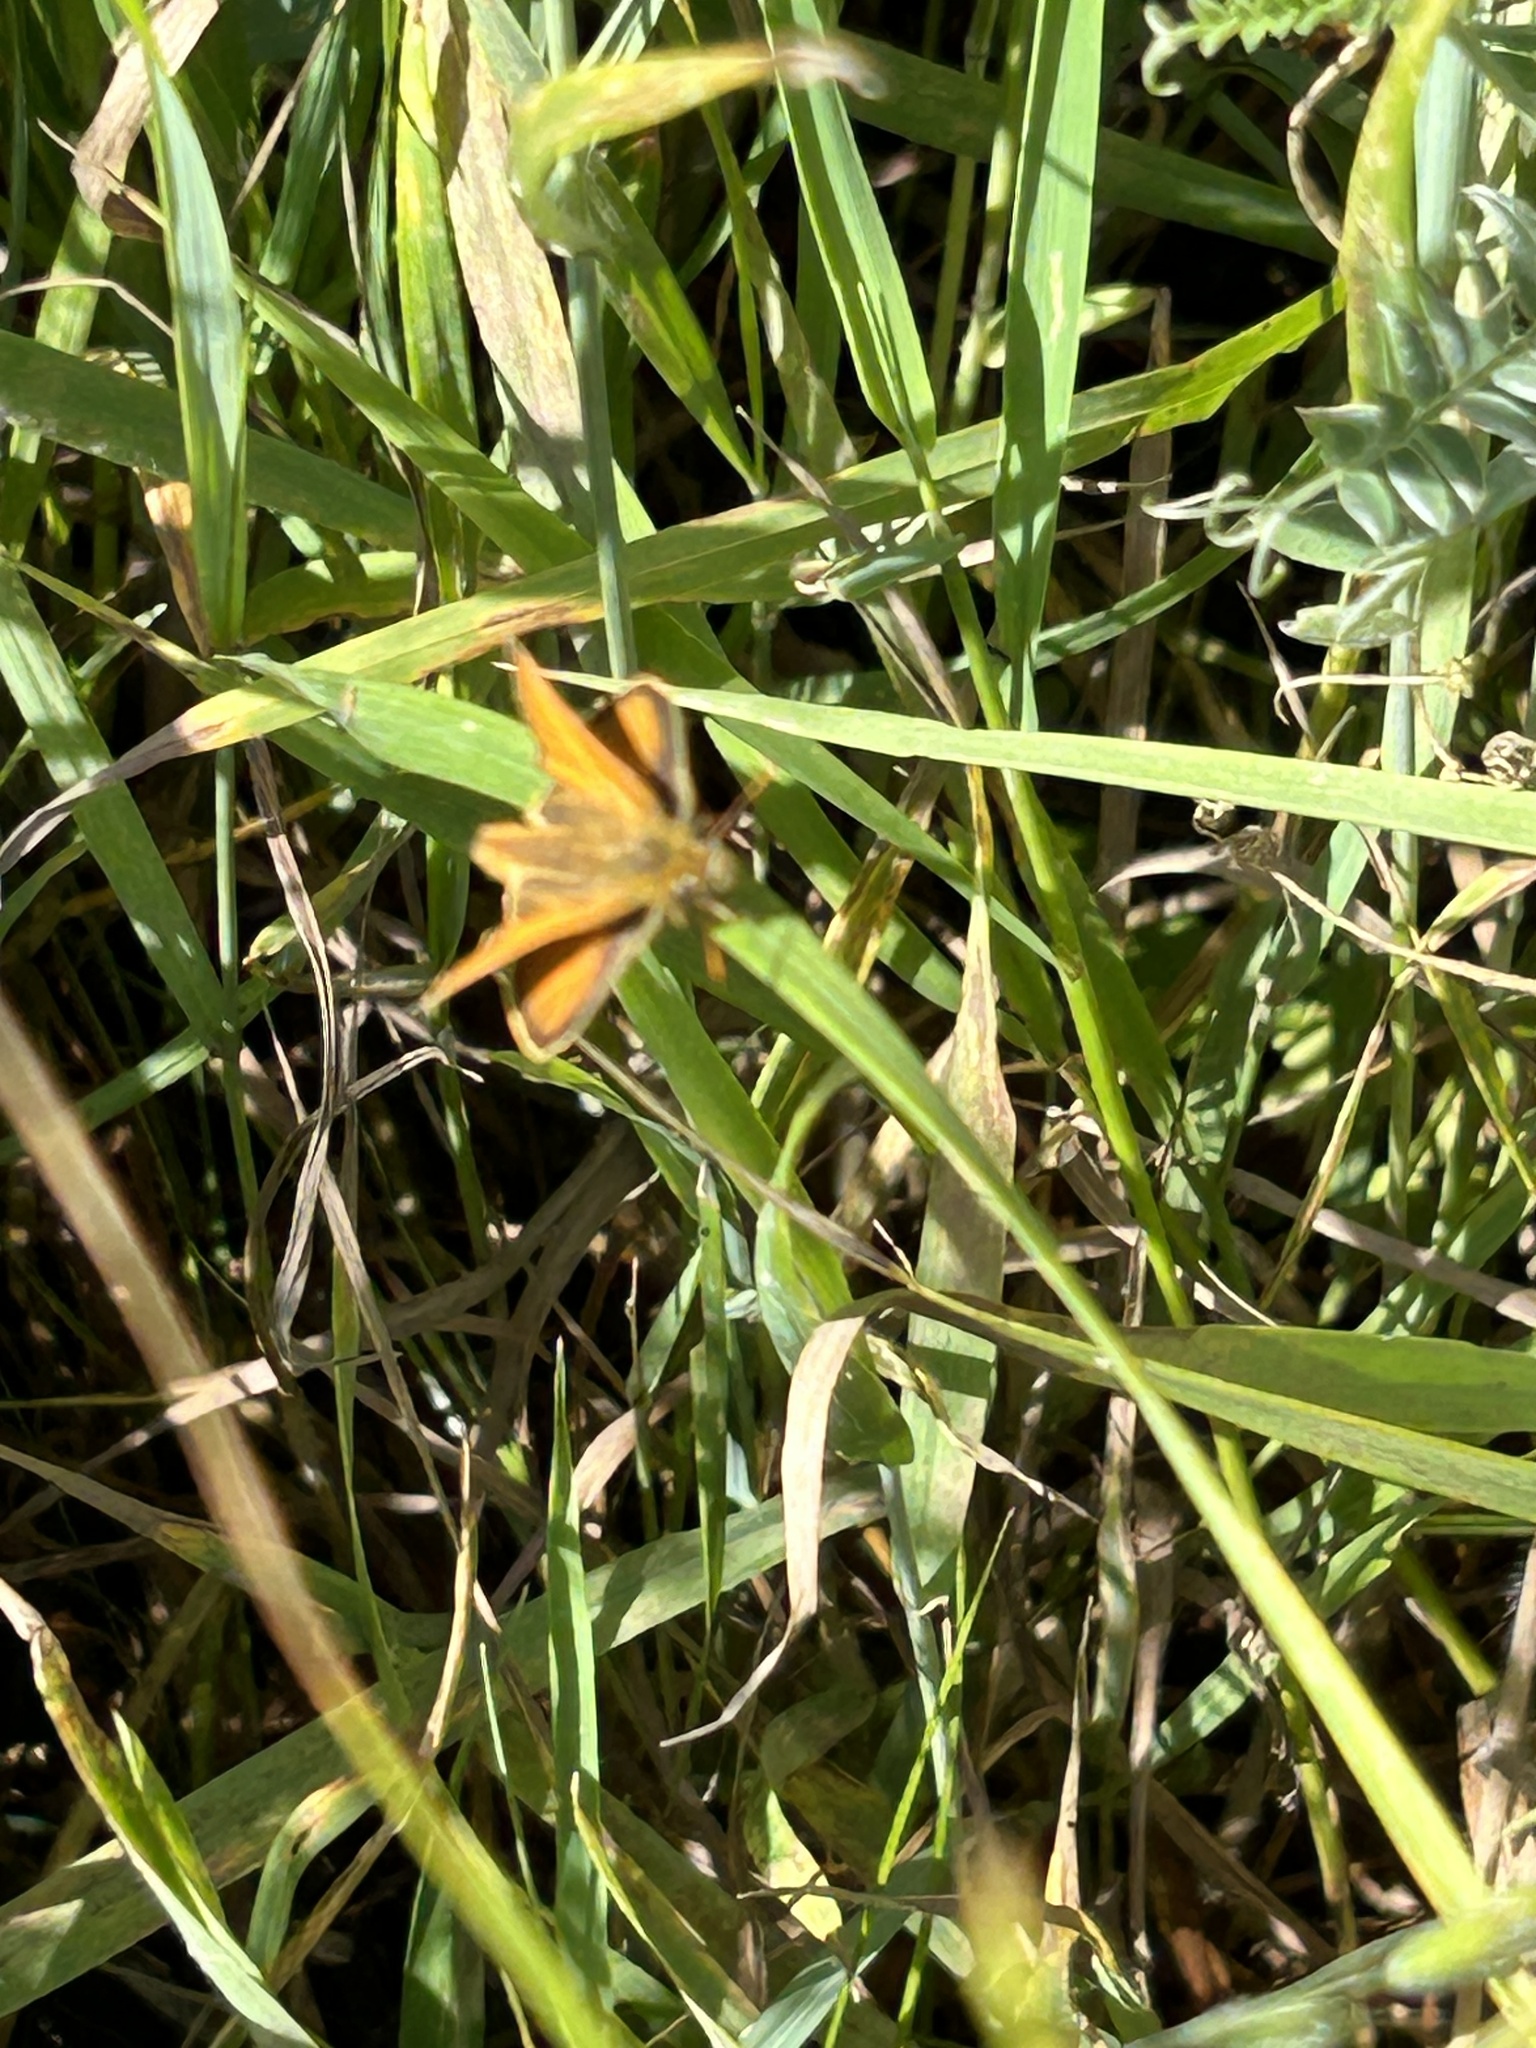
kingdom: Animalia
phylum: Arthropoda
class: Insecta
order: Lepidoptera
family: Hesperiidae
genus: Thymelicus
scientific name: Thymelicus sylvestris
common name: Small skipper
